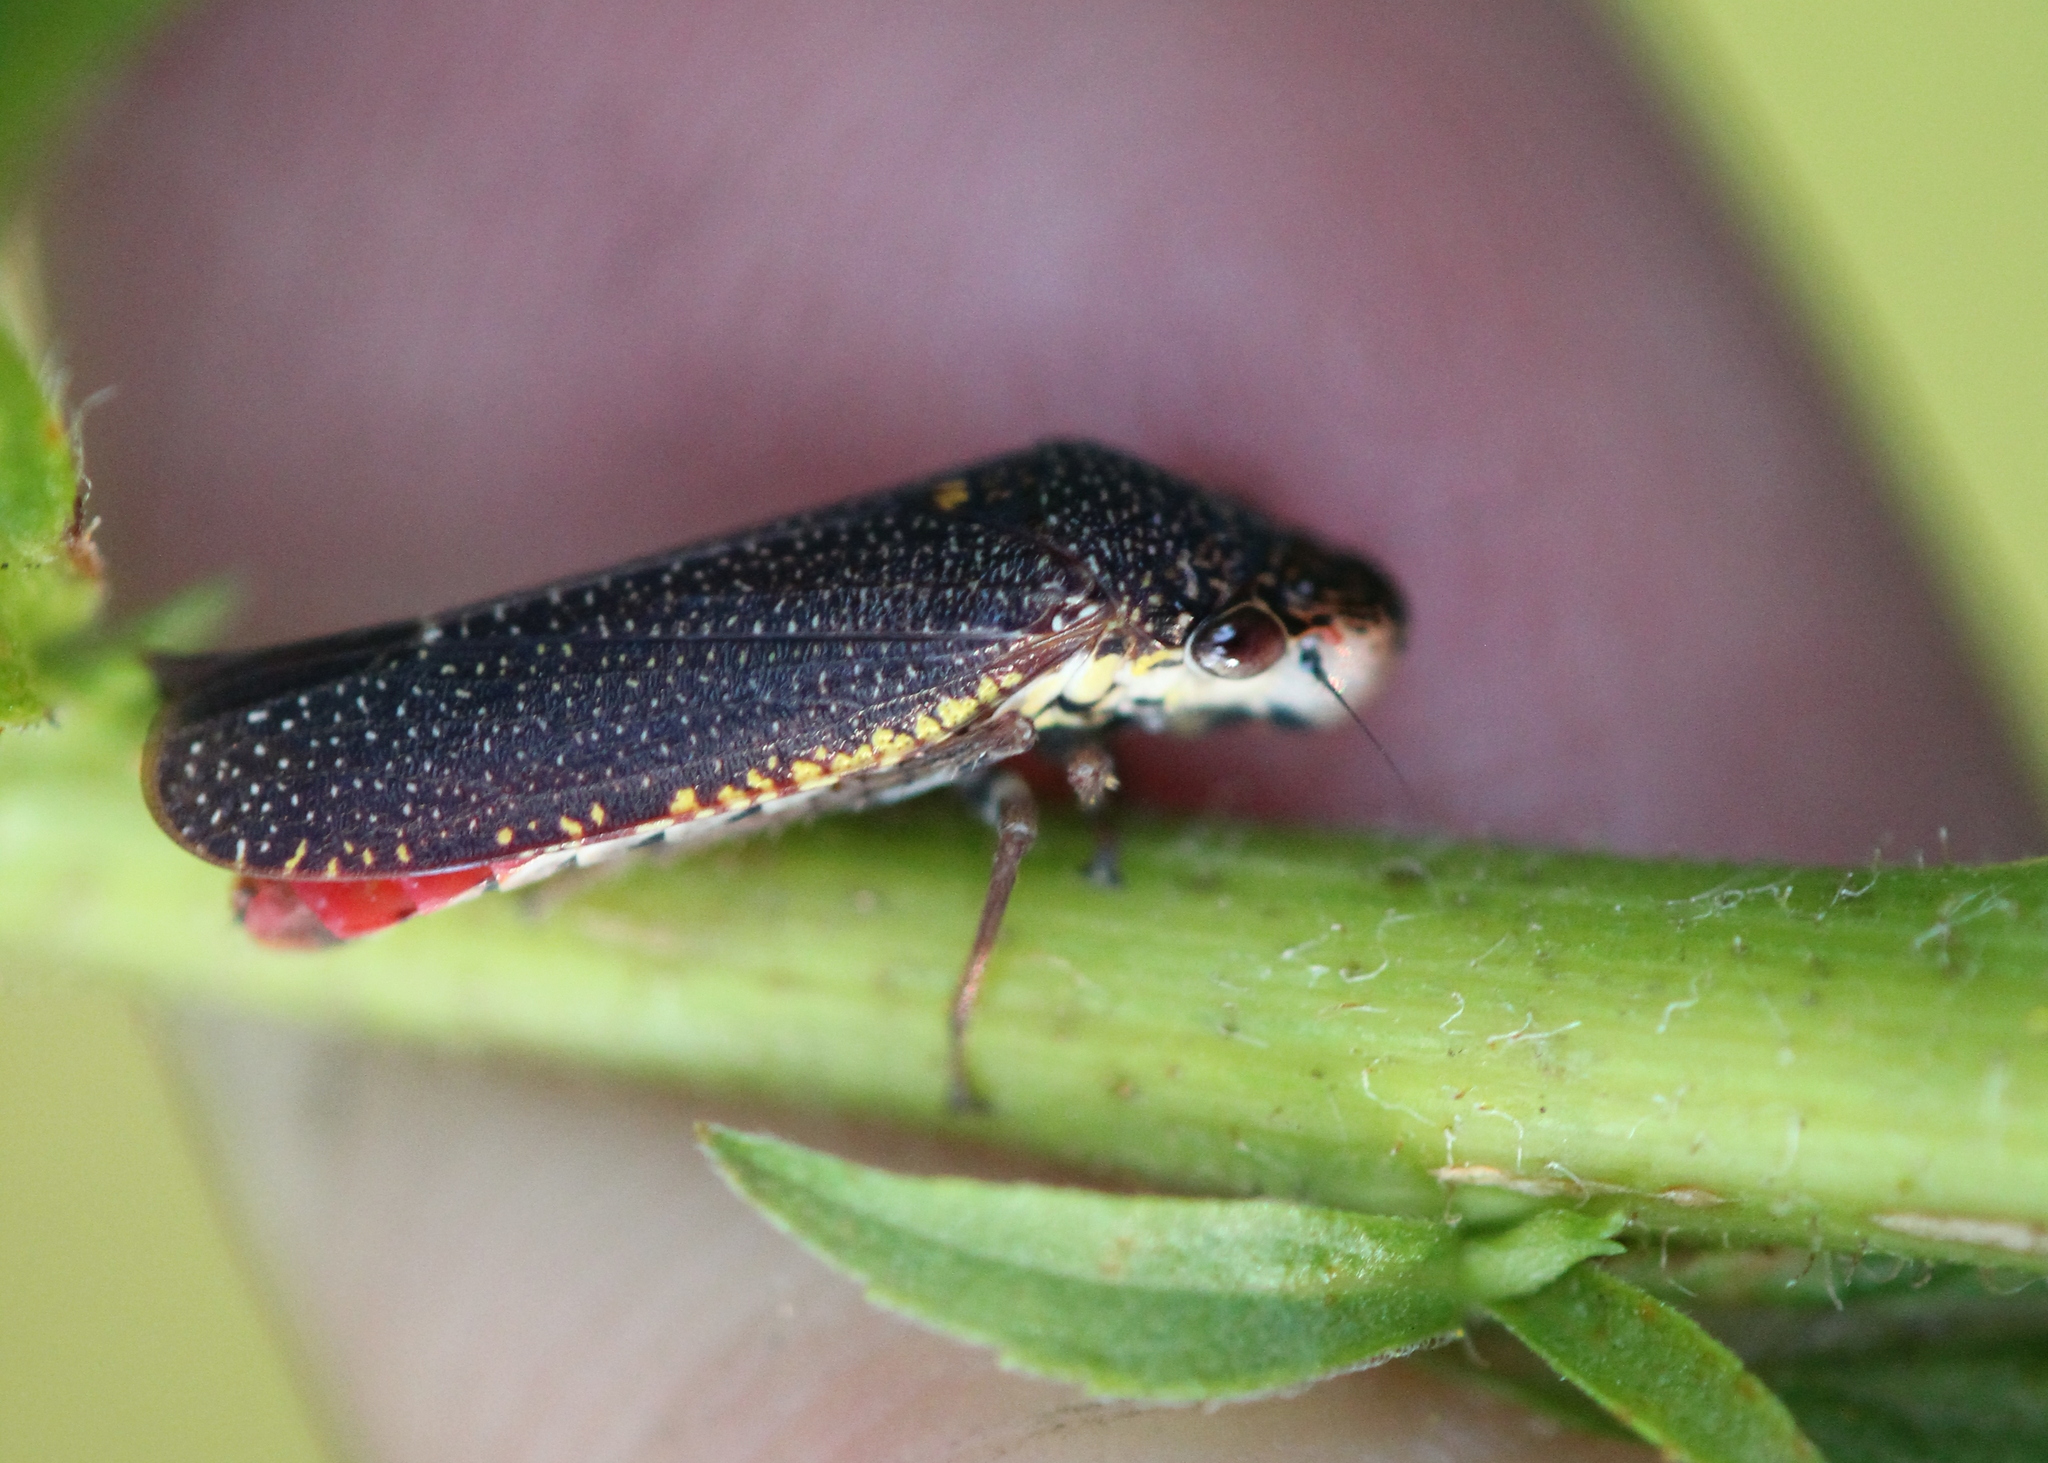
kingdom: Animalia
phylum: Arthropoda
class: Insecta
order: Hemiptera
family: Cicadellidae
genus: Paraulacizes
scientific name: Paraulacizes irrorata
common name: Speckled sharpshooter
